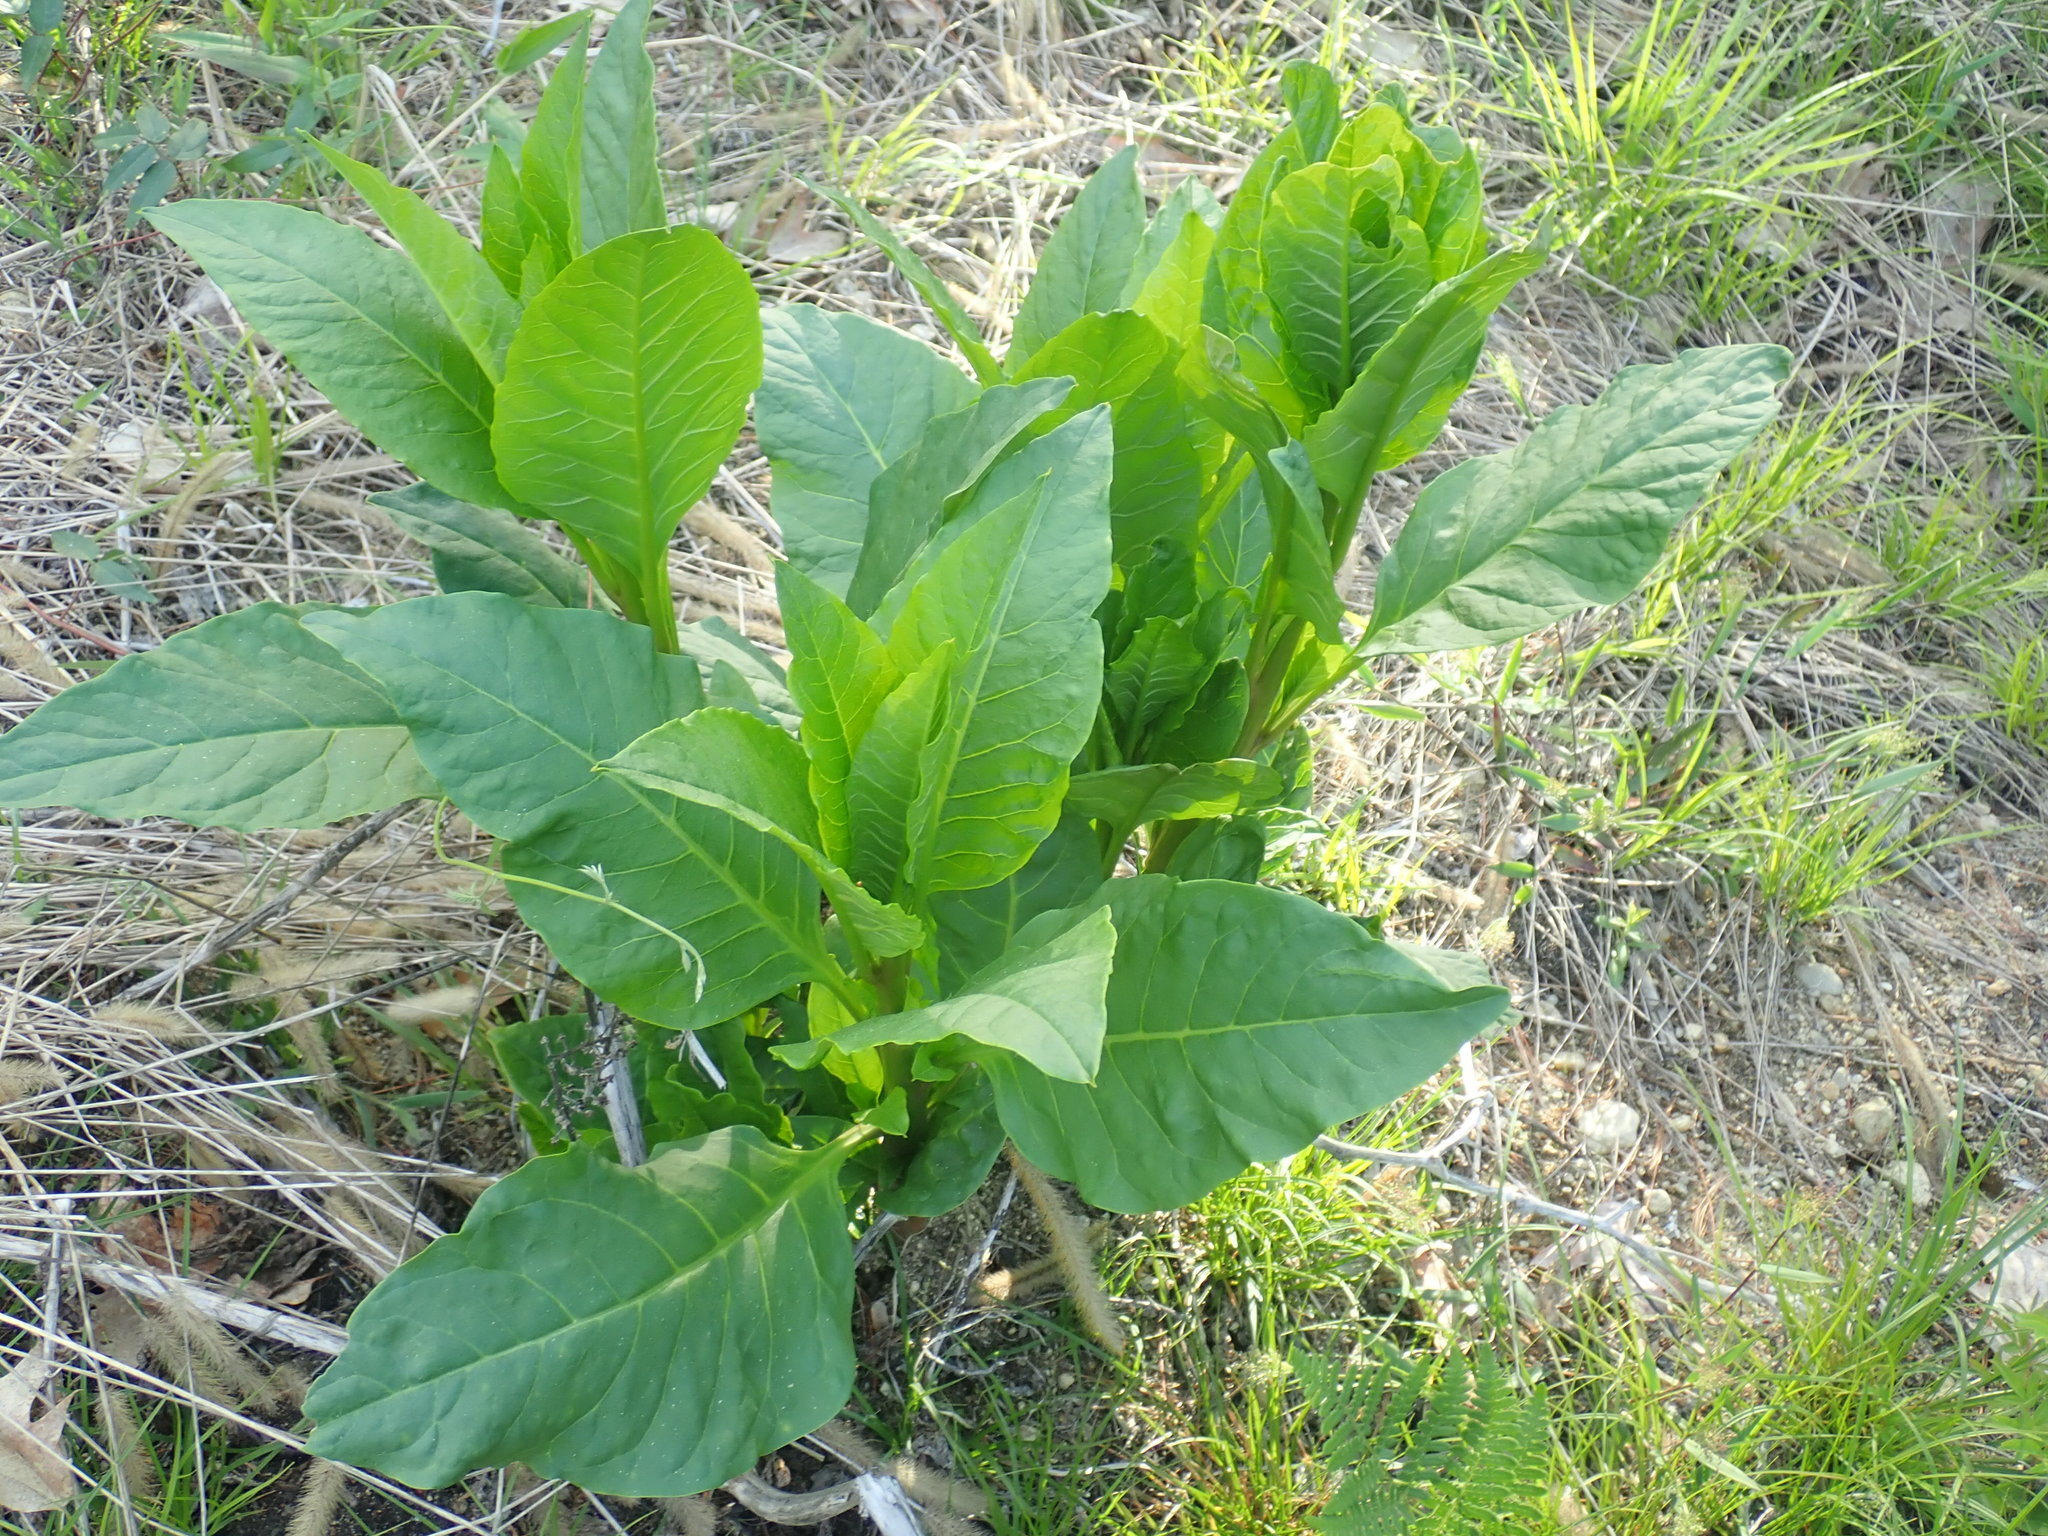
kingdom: Plantae
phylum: Tracheophyta
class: Magnoliopsida
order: Caryophyllales
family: Phytolaccaceae
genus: Phytolacca
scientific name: Phytolacca americana
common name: American pokeweed
